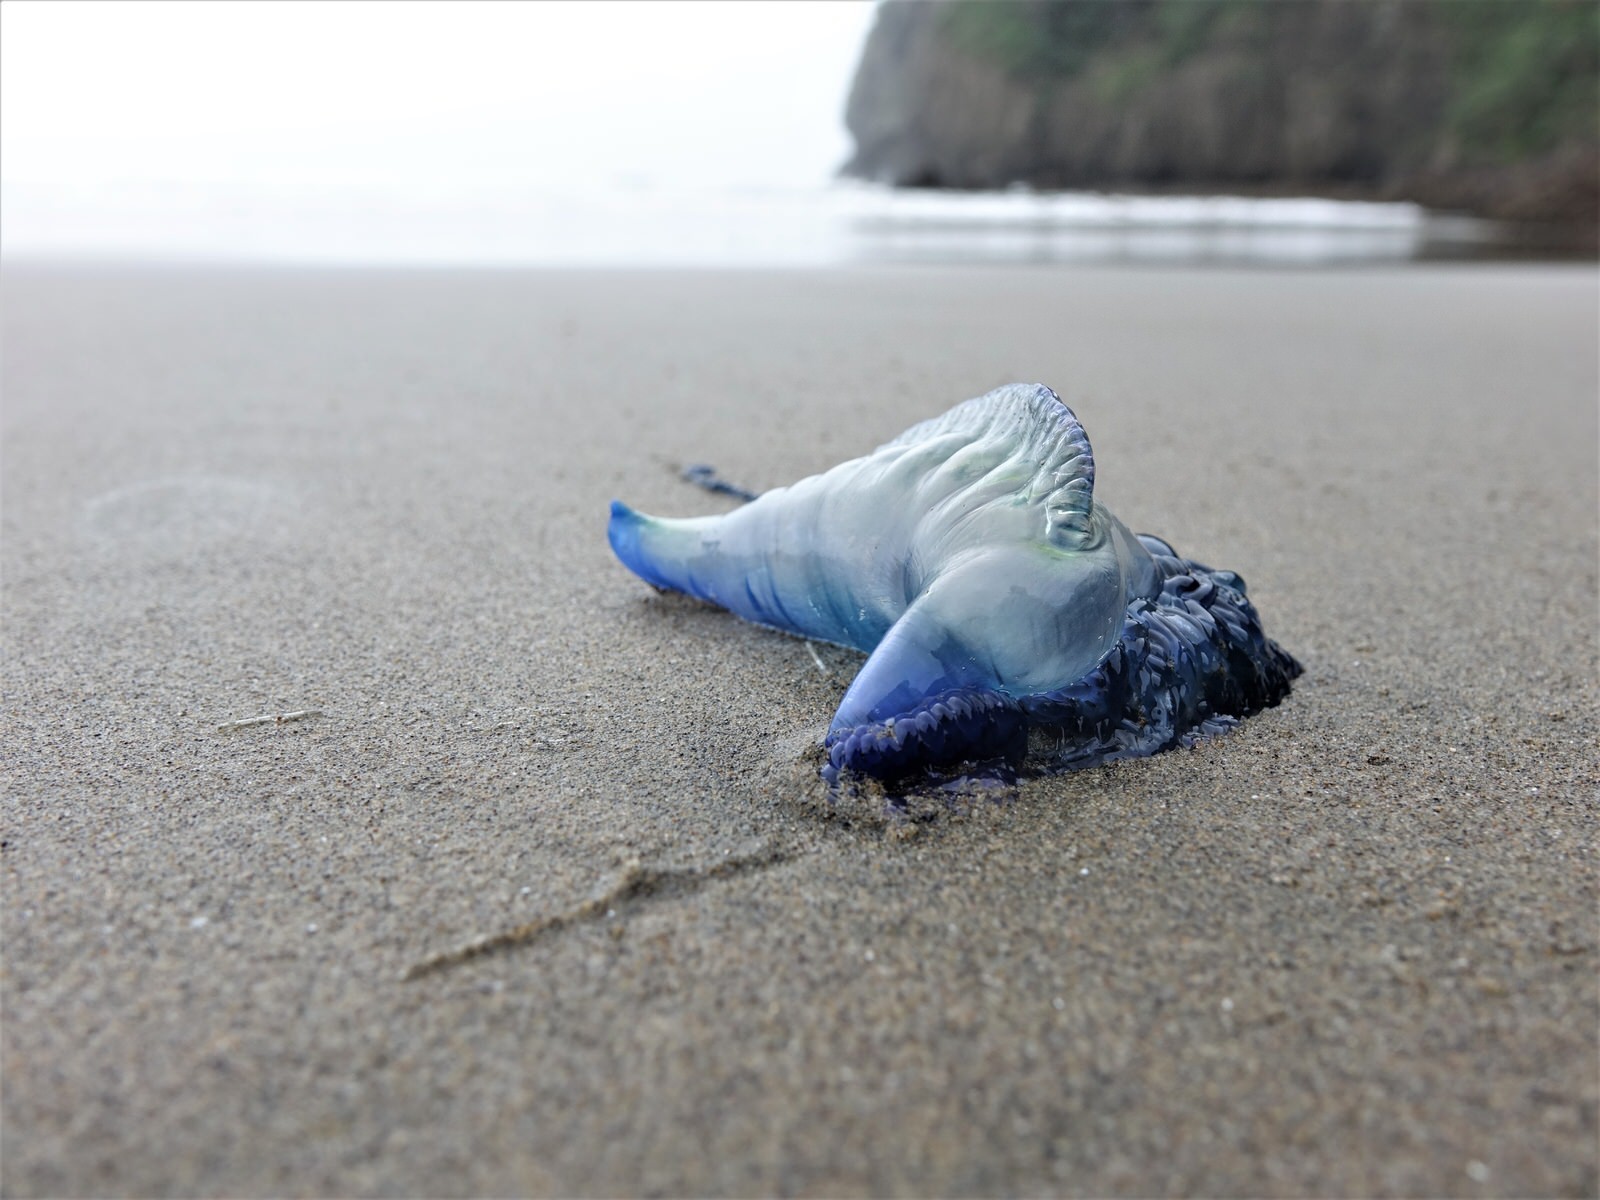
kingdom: Animalia
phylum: Cnidaria
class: Hydrozoa
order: Siphonophorae
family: Physaliidae
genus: Physalia
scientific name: Physalia physalis
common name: Portuguese man-of-war
